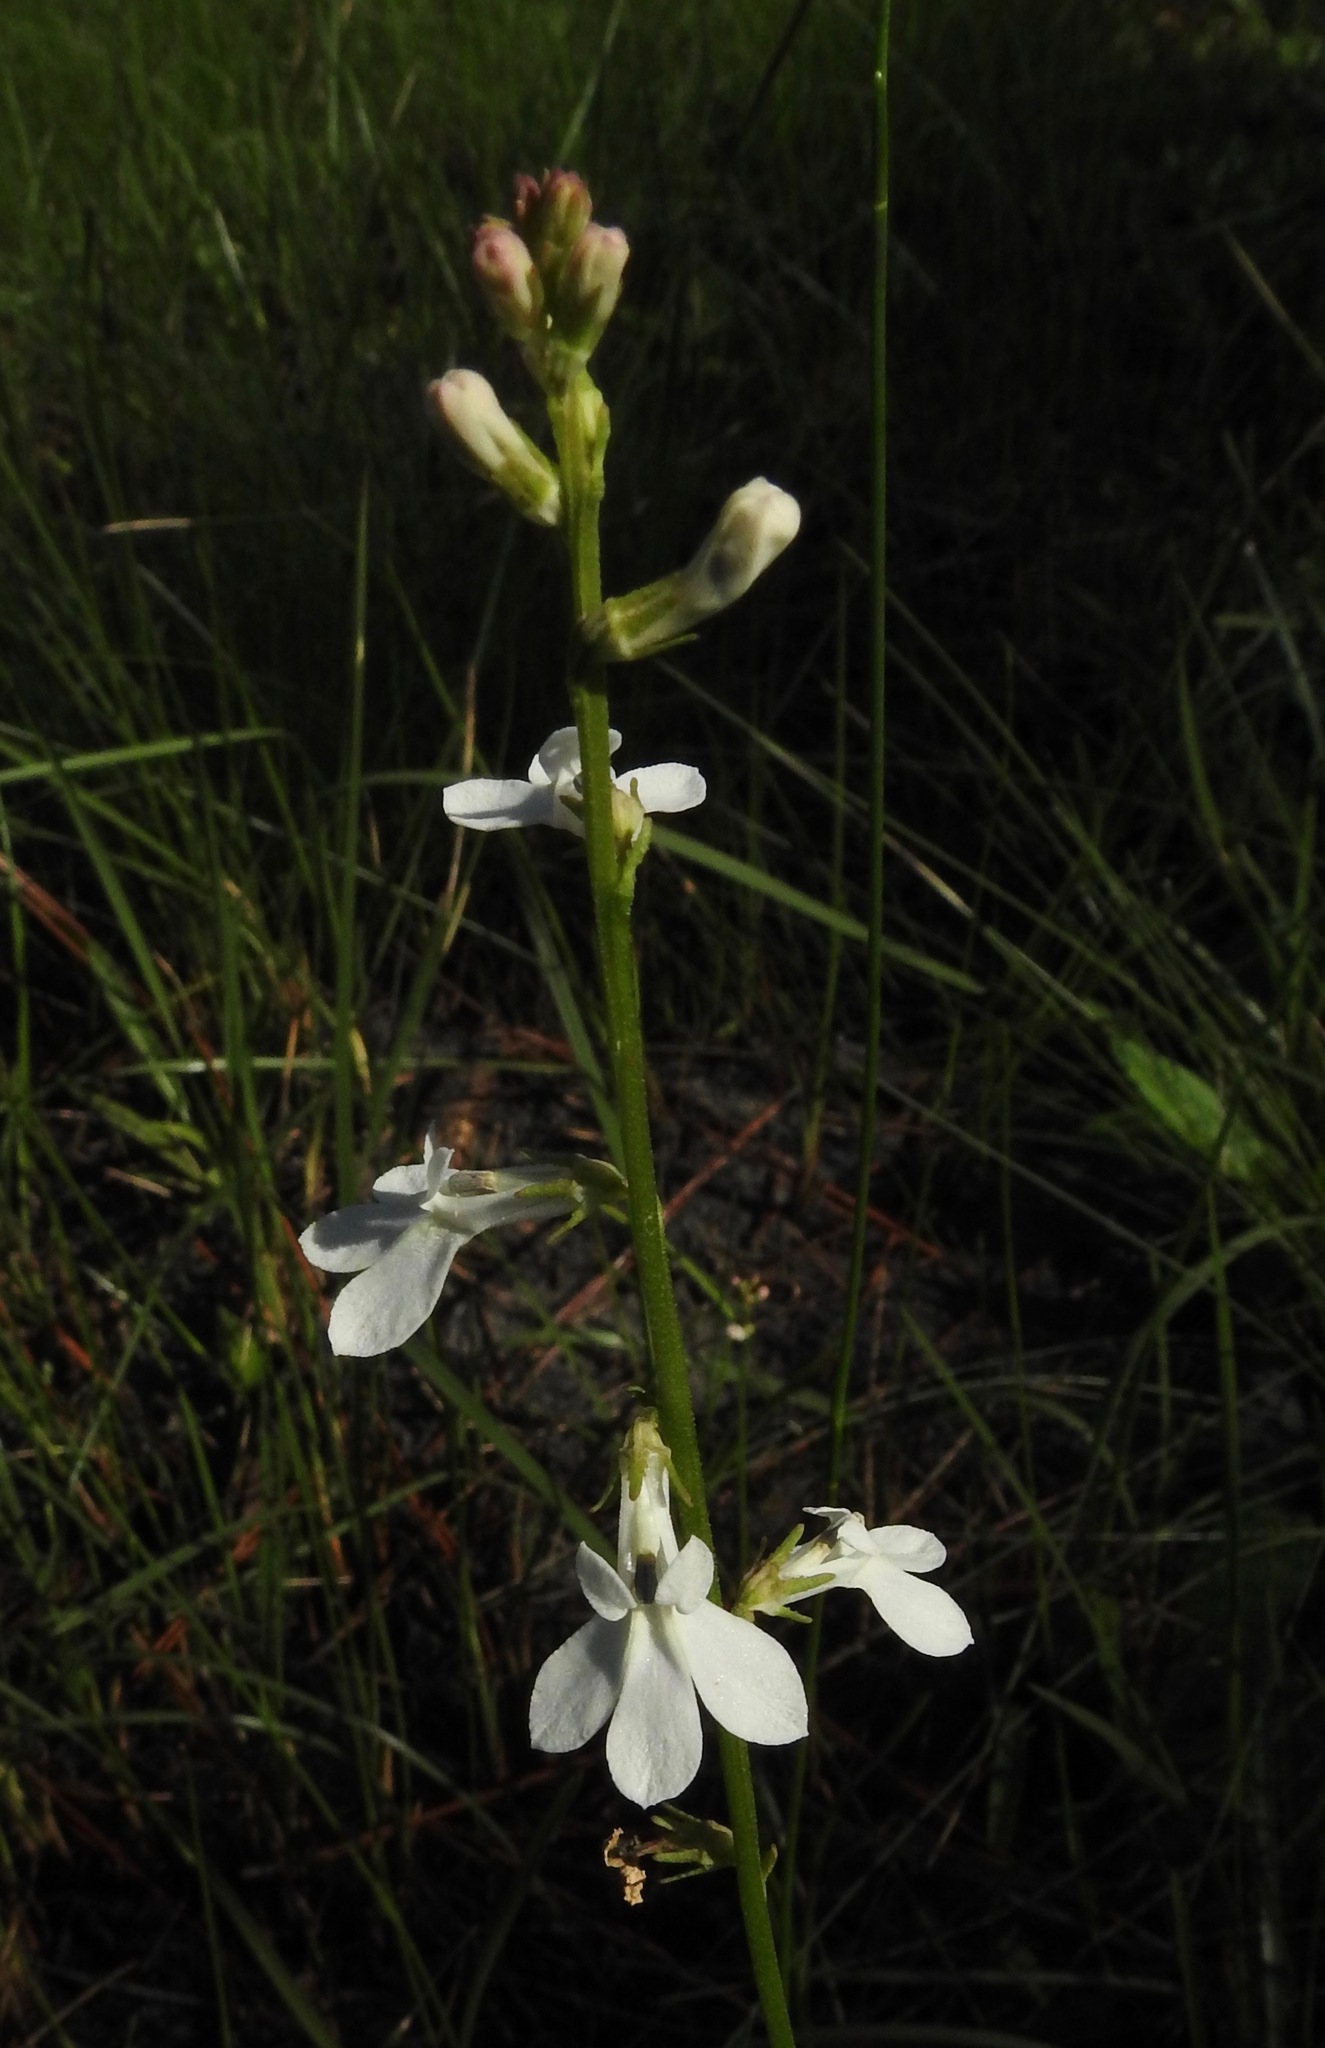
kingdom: Plantae
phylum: Tracheophyta
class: Magnoliopsida
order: Asterales
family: Campanulaceae
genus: Lobelia
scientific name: Lobelia paludosa
